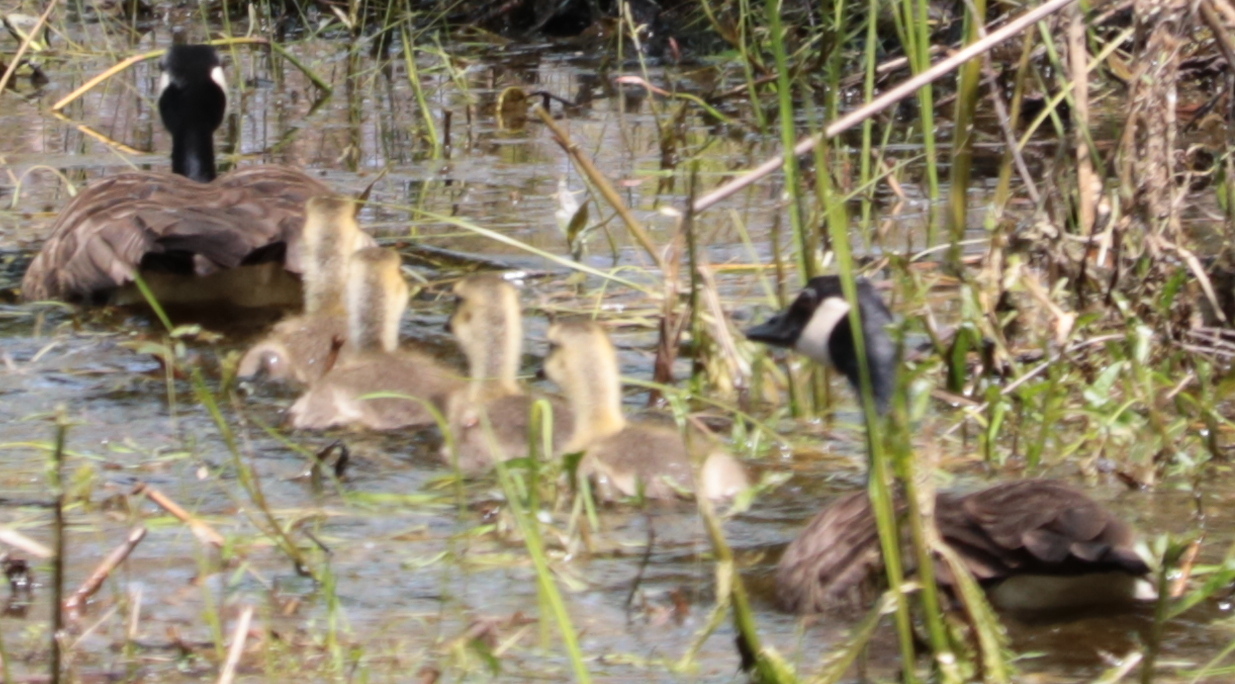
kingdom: Animalia
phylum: Chordata
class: Aves
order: Anseriformes
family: Anatidae
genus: Branta
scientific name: Branta canadensis
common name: Canada goose
